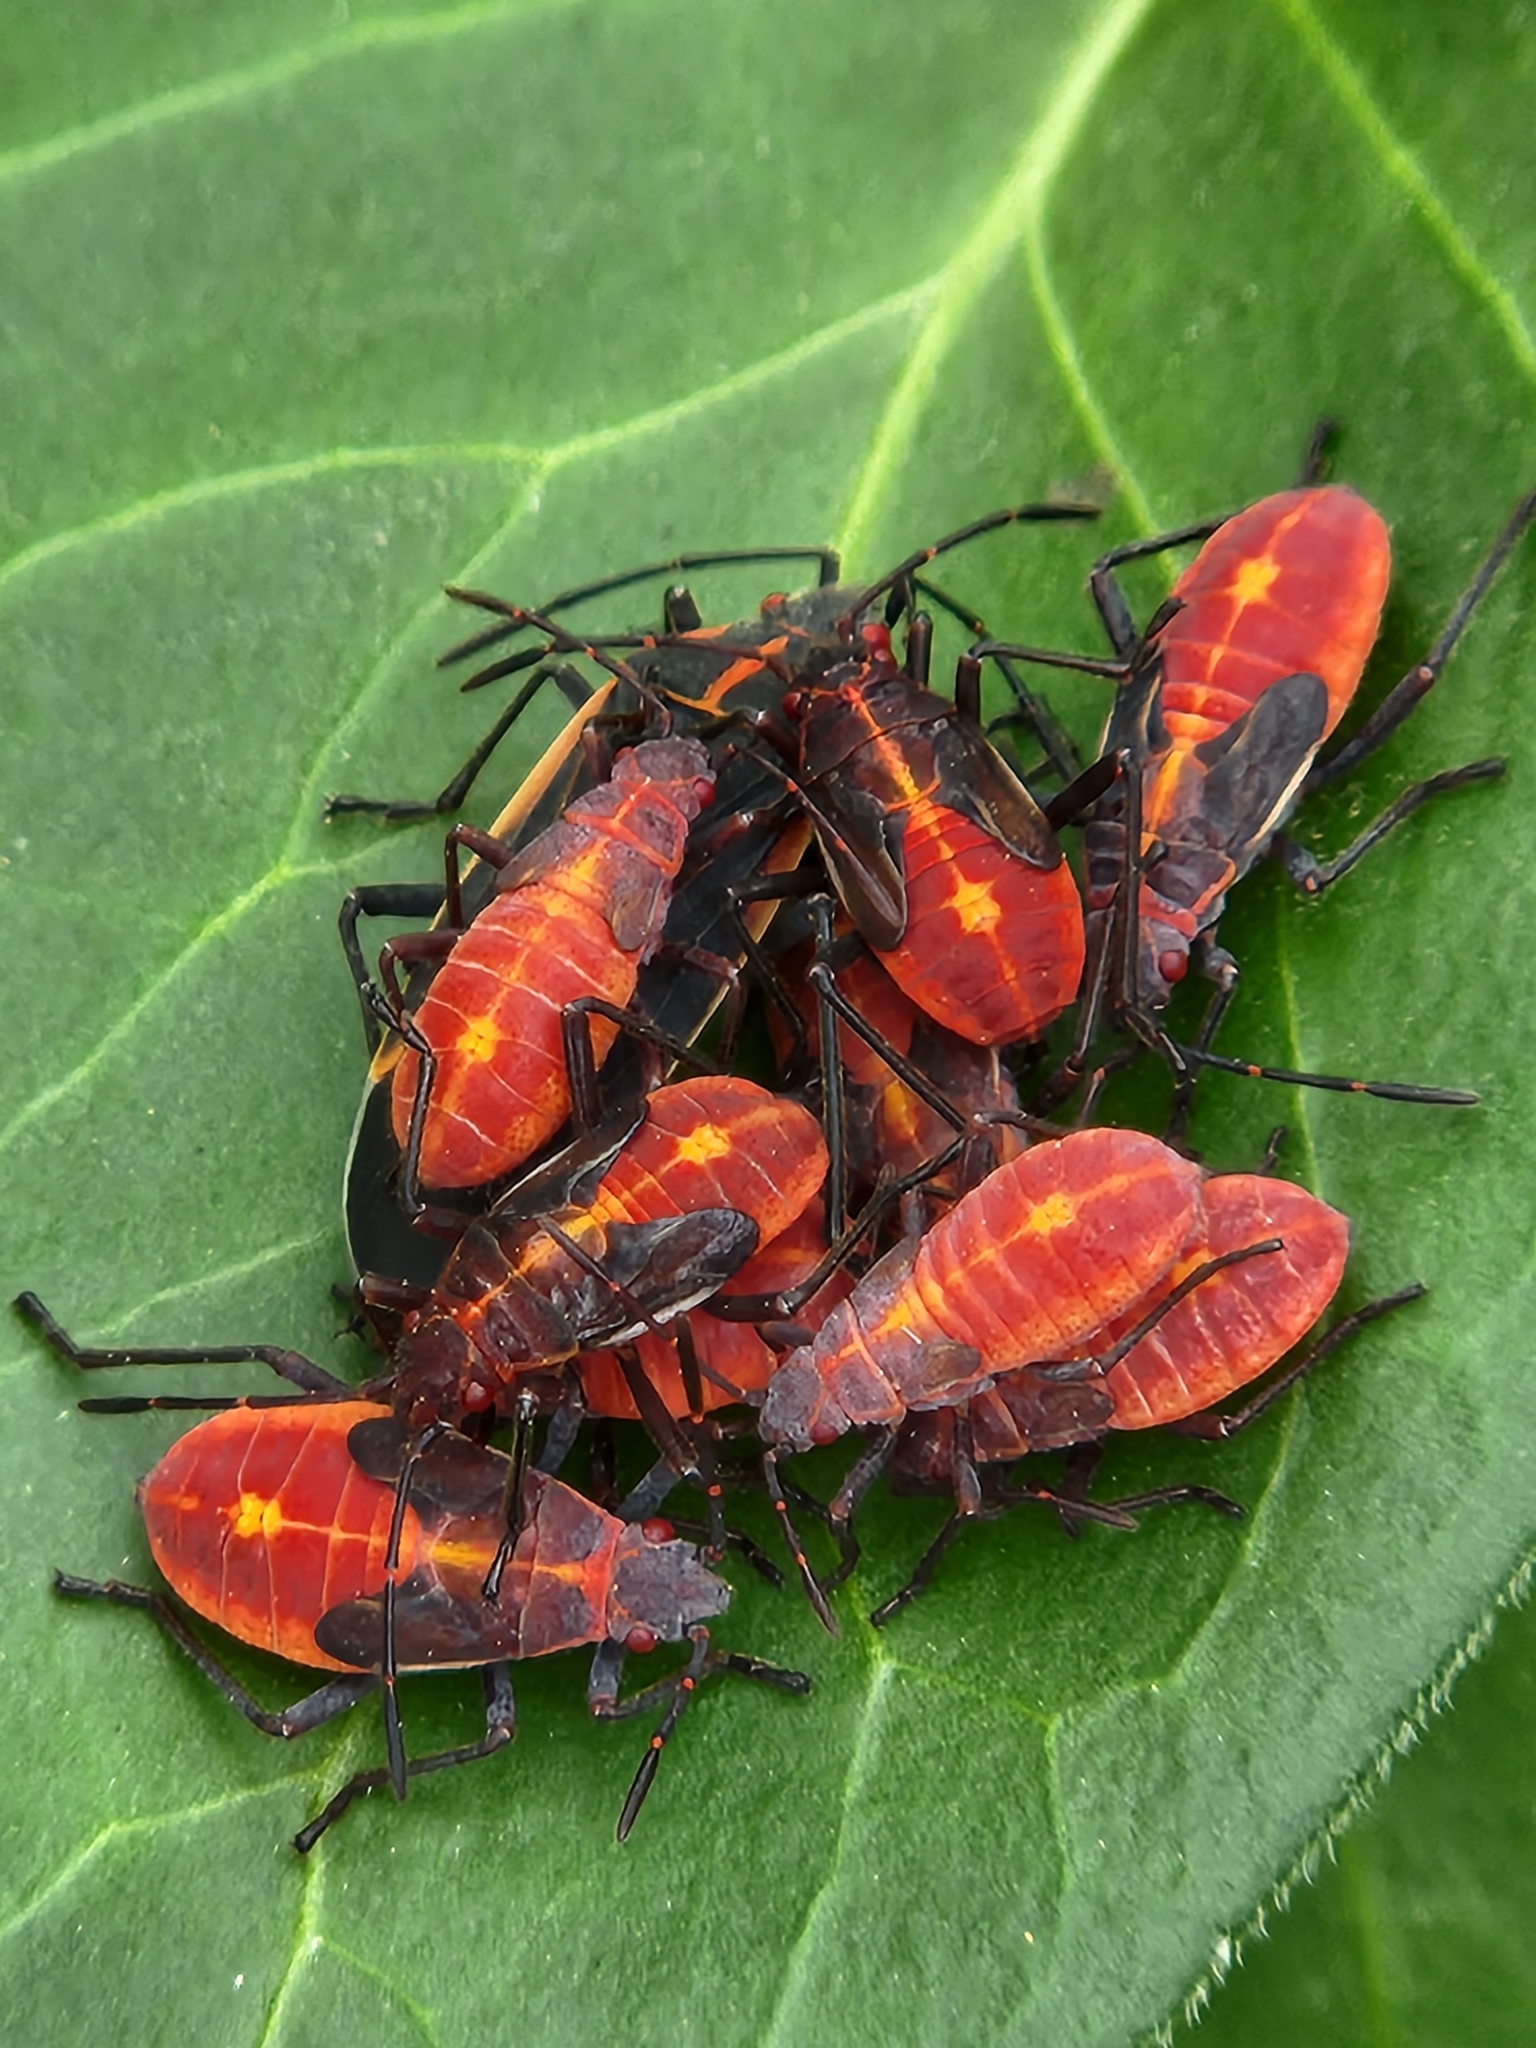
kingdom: Animalia
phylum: Arthropoda
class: Insecta
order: Hemiptera
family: Rhopalidae
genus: Boisea
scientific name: Boisea trivittata
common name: Boxelder bug
